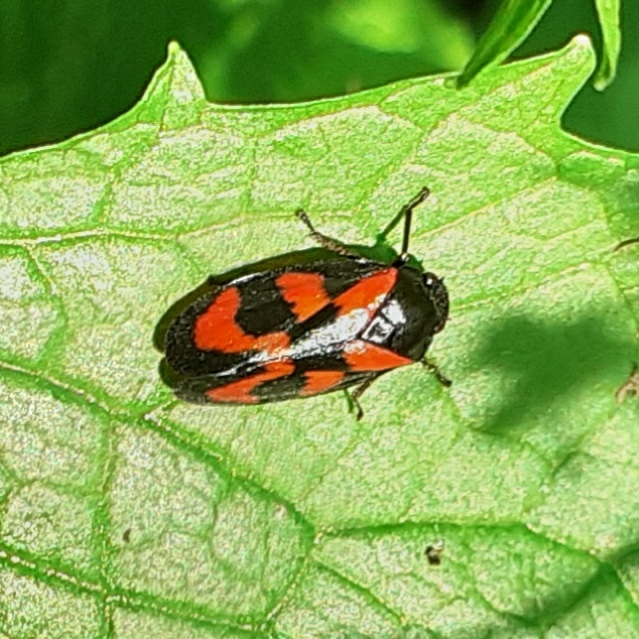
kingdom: Animalia
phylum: Arthropoda
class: Insecta
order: Hemiptera
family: Cercopidae
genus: Cercopis
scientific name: Cercopis vulnerata
